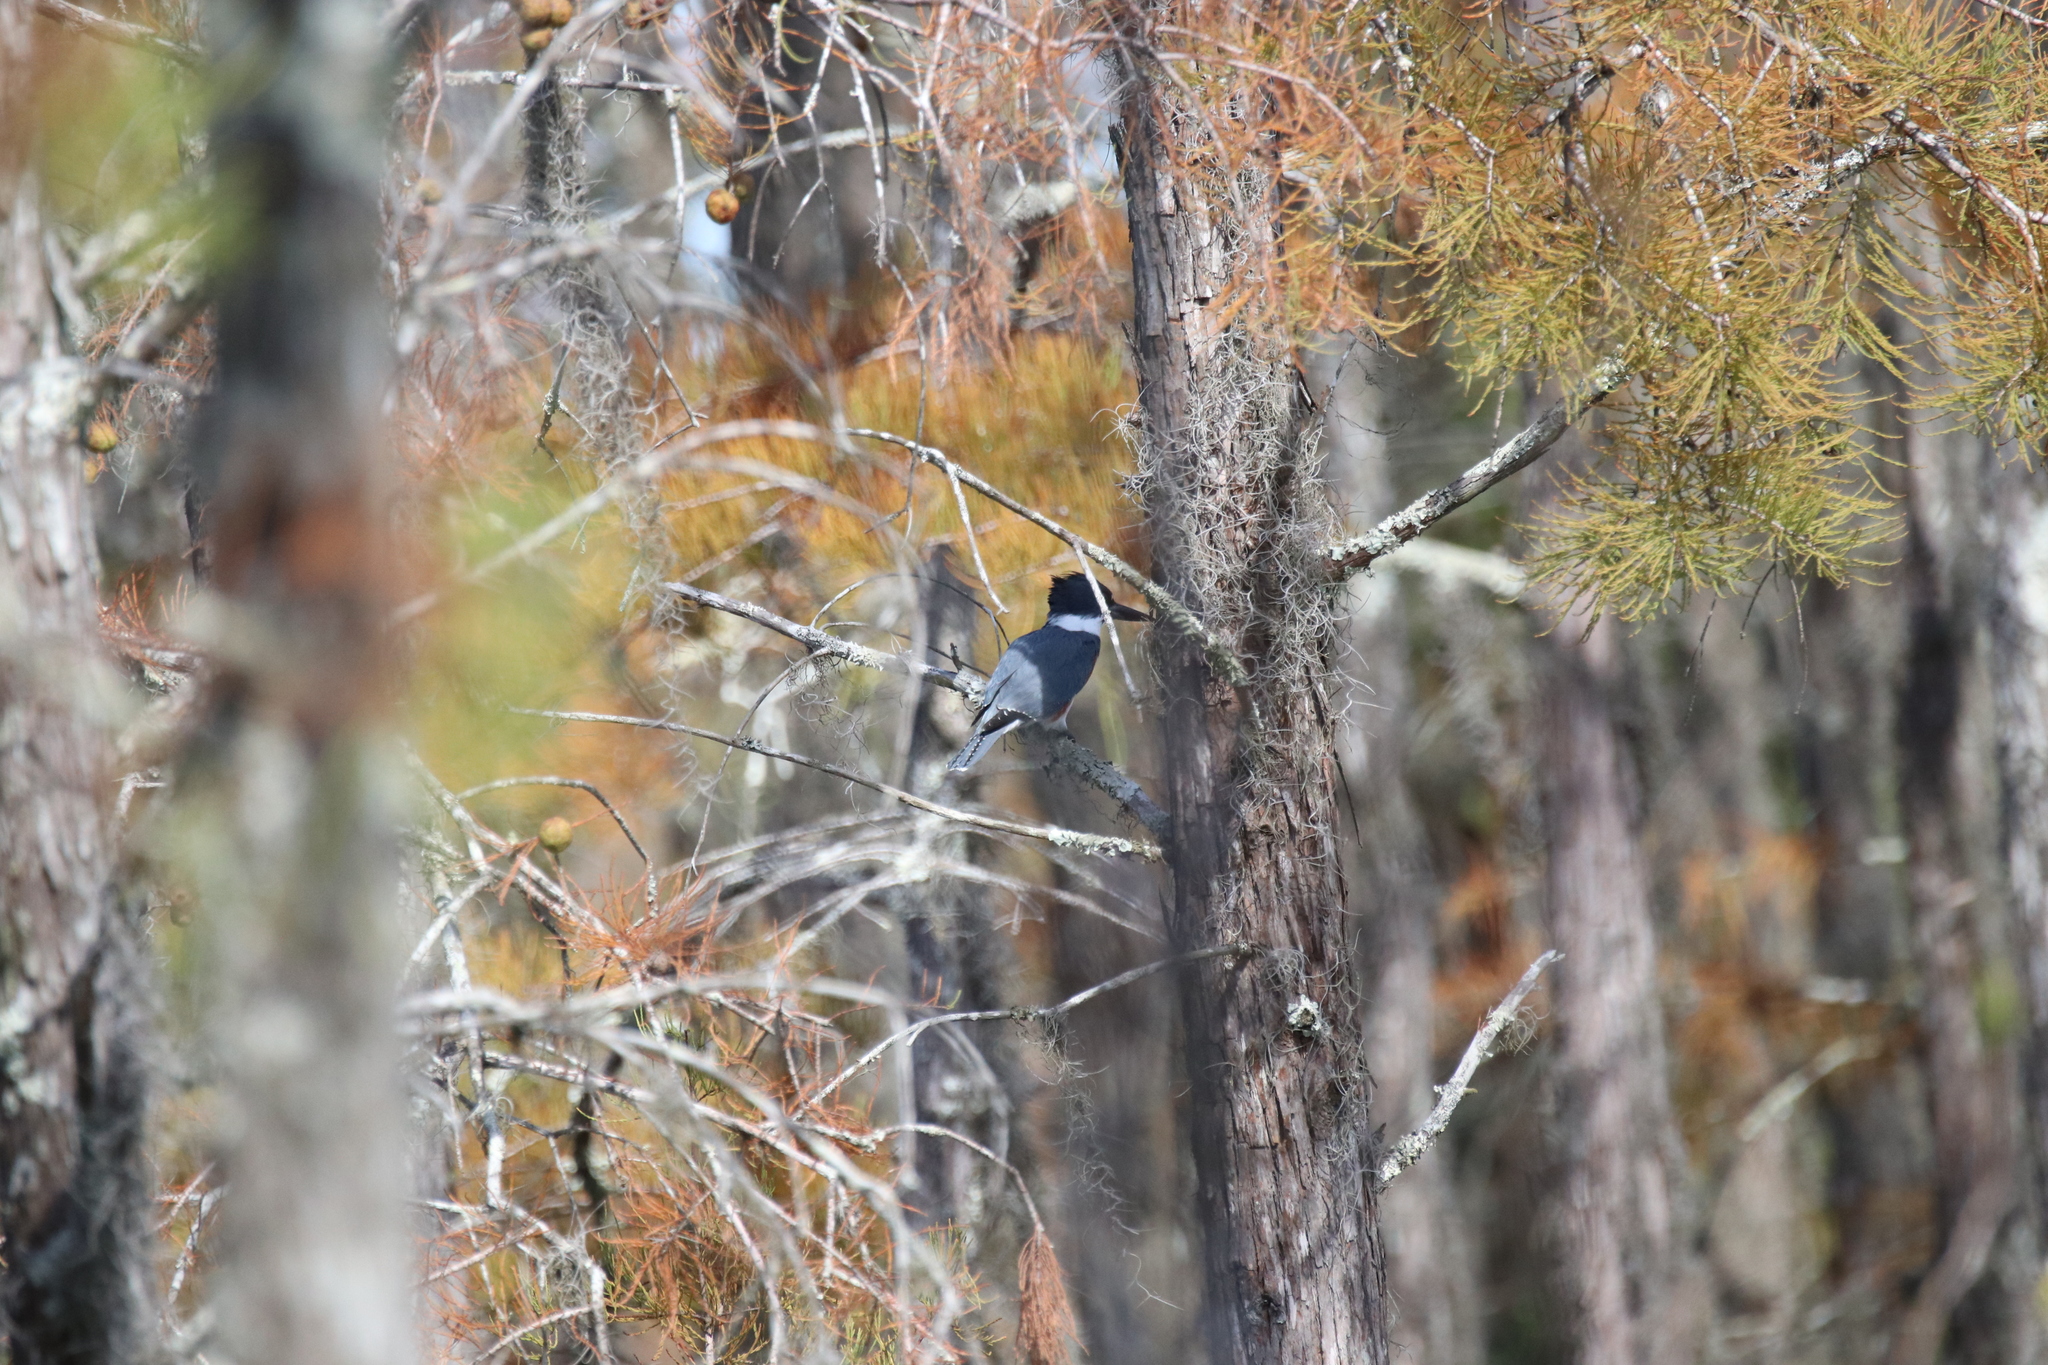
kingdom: Animalia
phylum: Chordata
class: Aves
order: Coraciiformes
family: Alcedinidae
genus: Megaceryle
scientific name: Megaceryle alcyon
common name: Belted kingfisher
